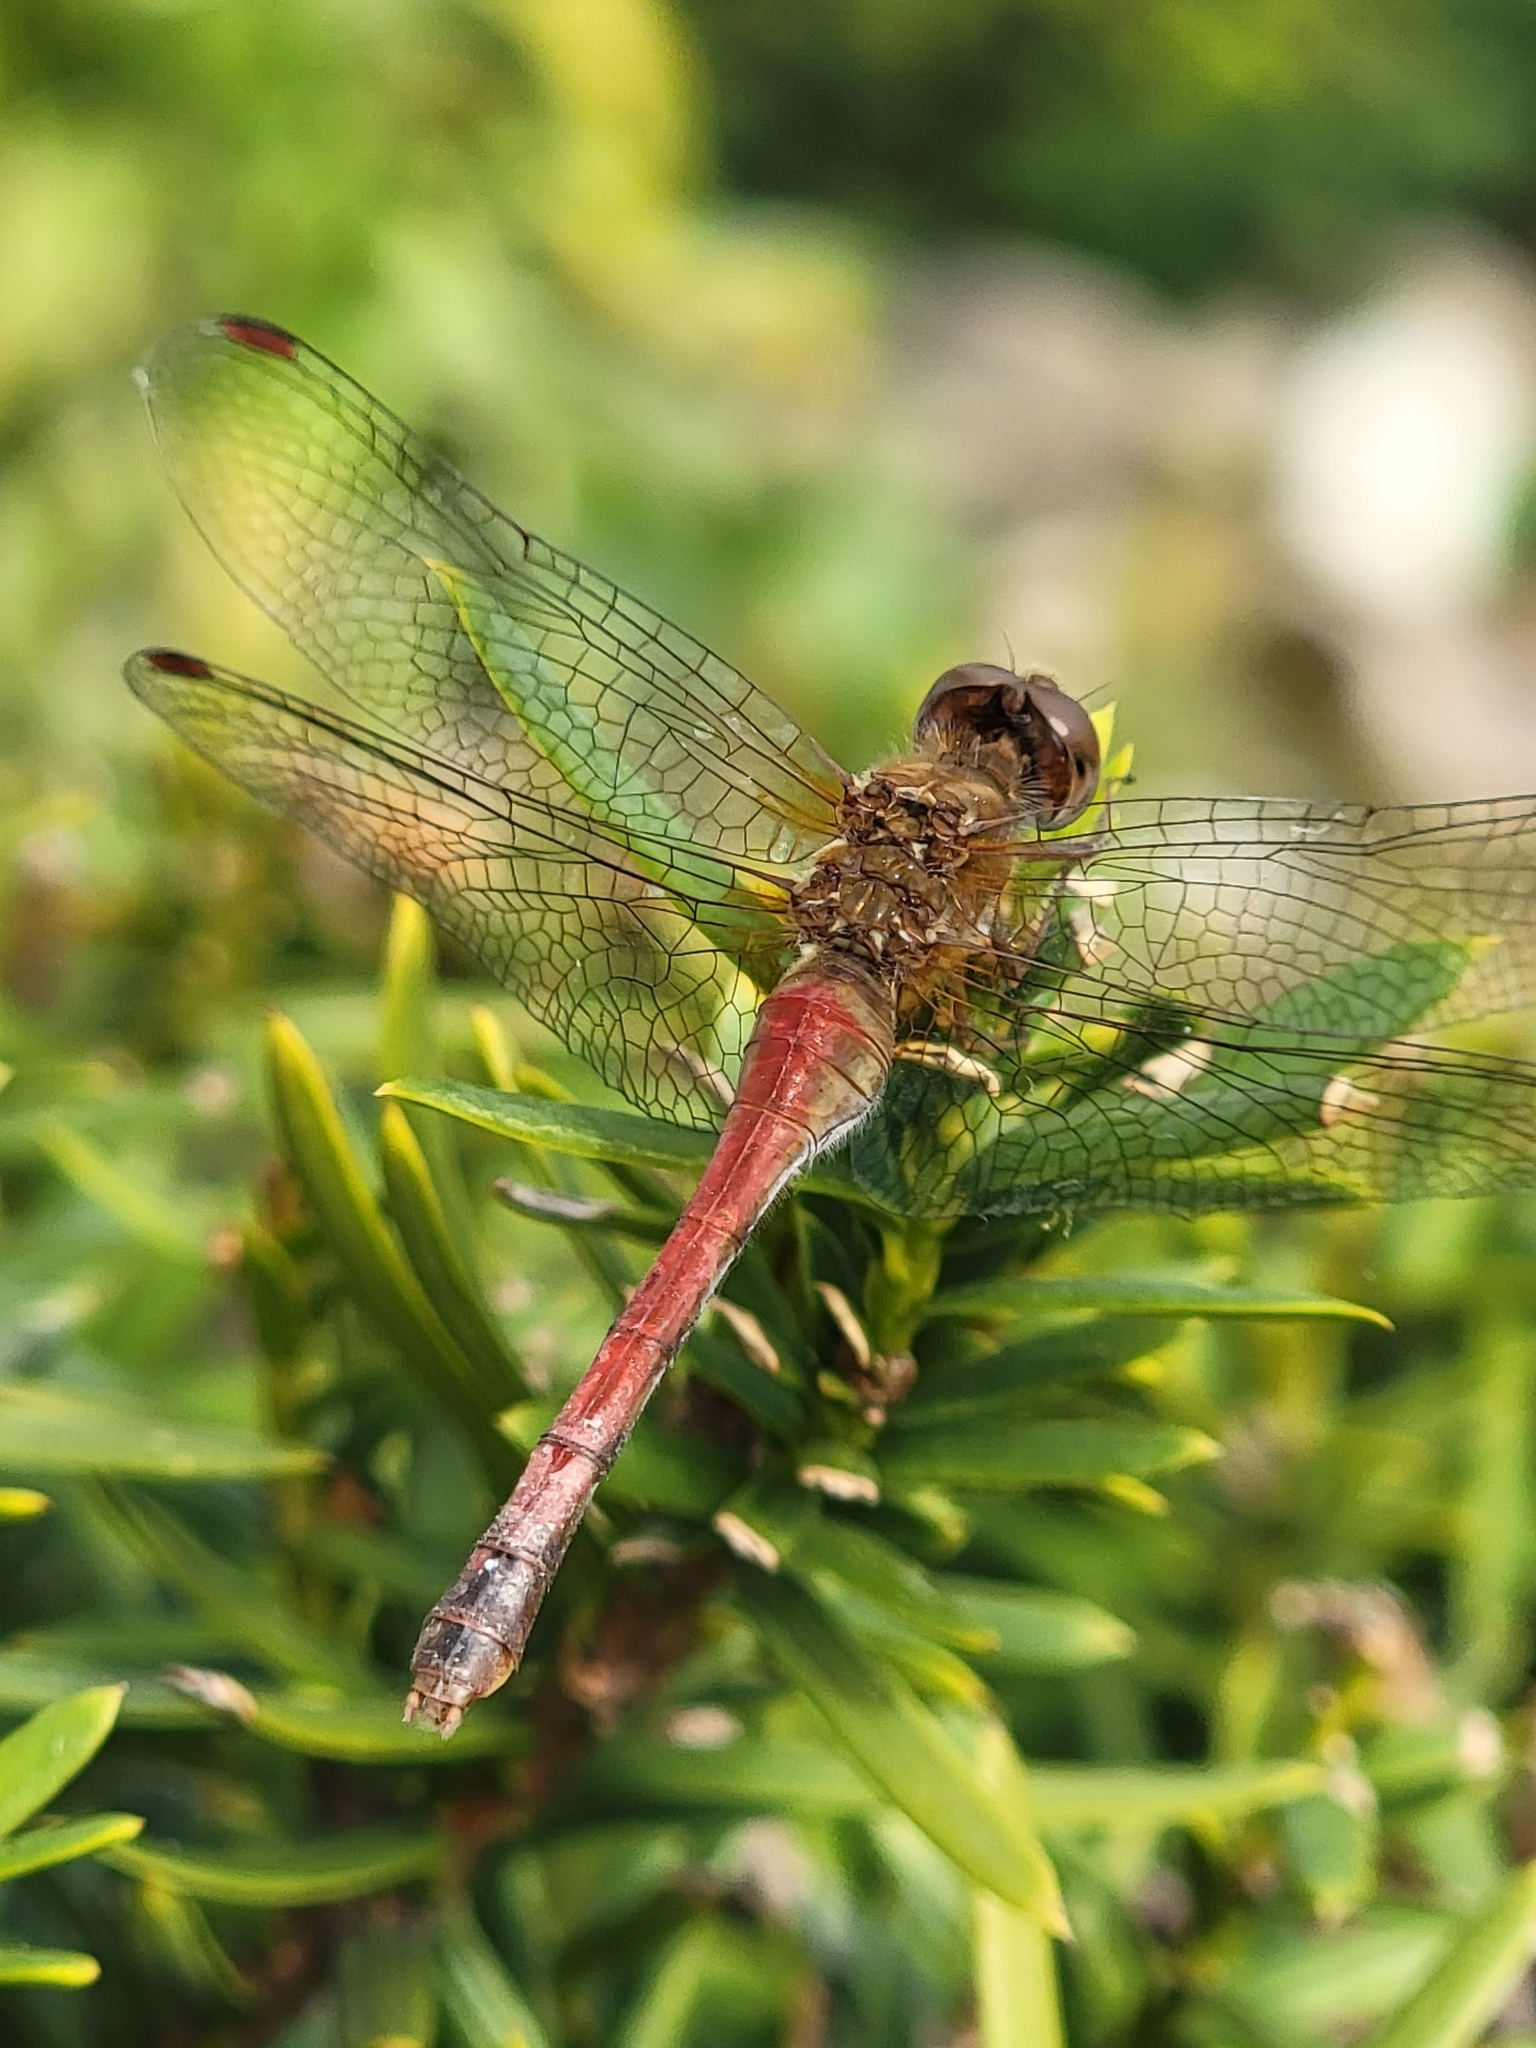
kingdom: Animalia
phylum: Arthropoda
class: Insecta
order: Odonata
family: Libellulidae
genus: Sympetrum
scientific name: Sympetrum vicinum
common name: Autumn meadowhawk
